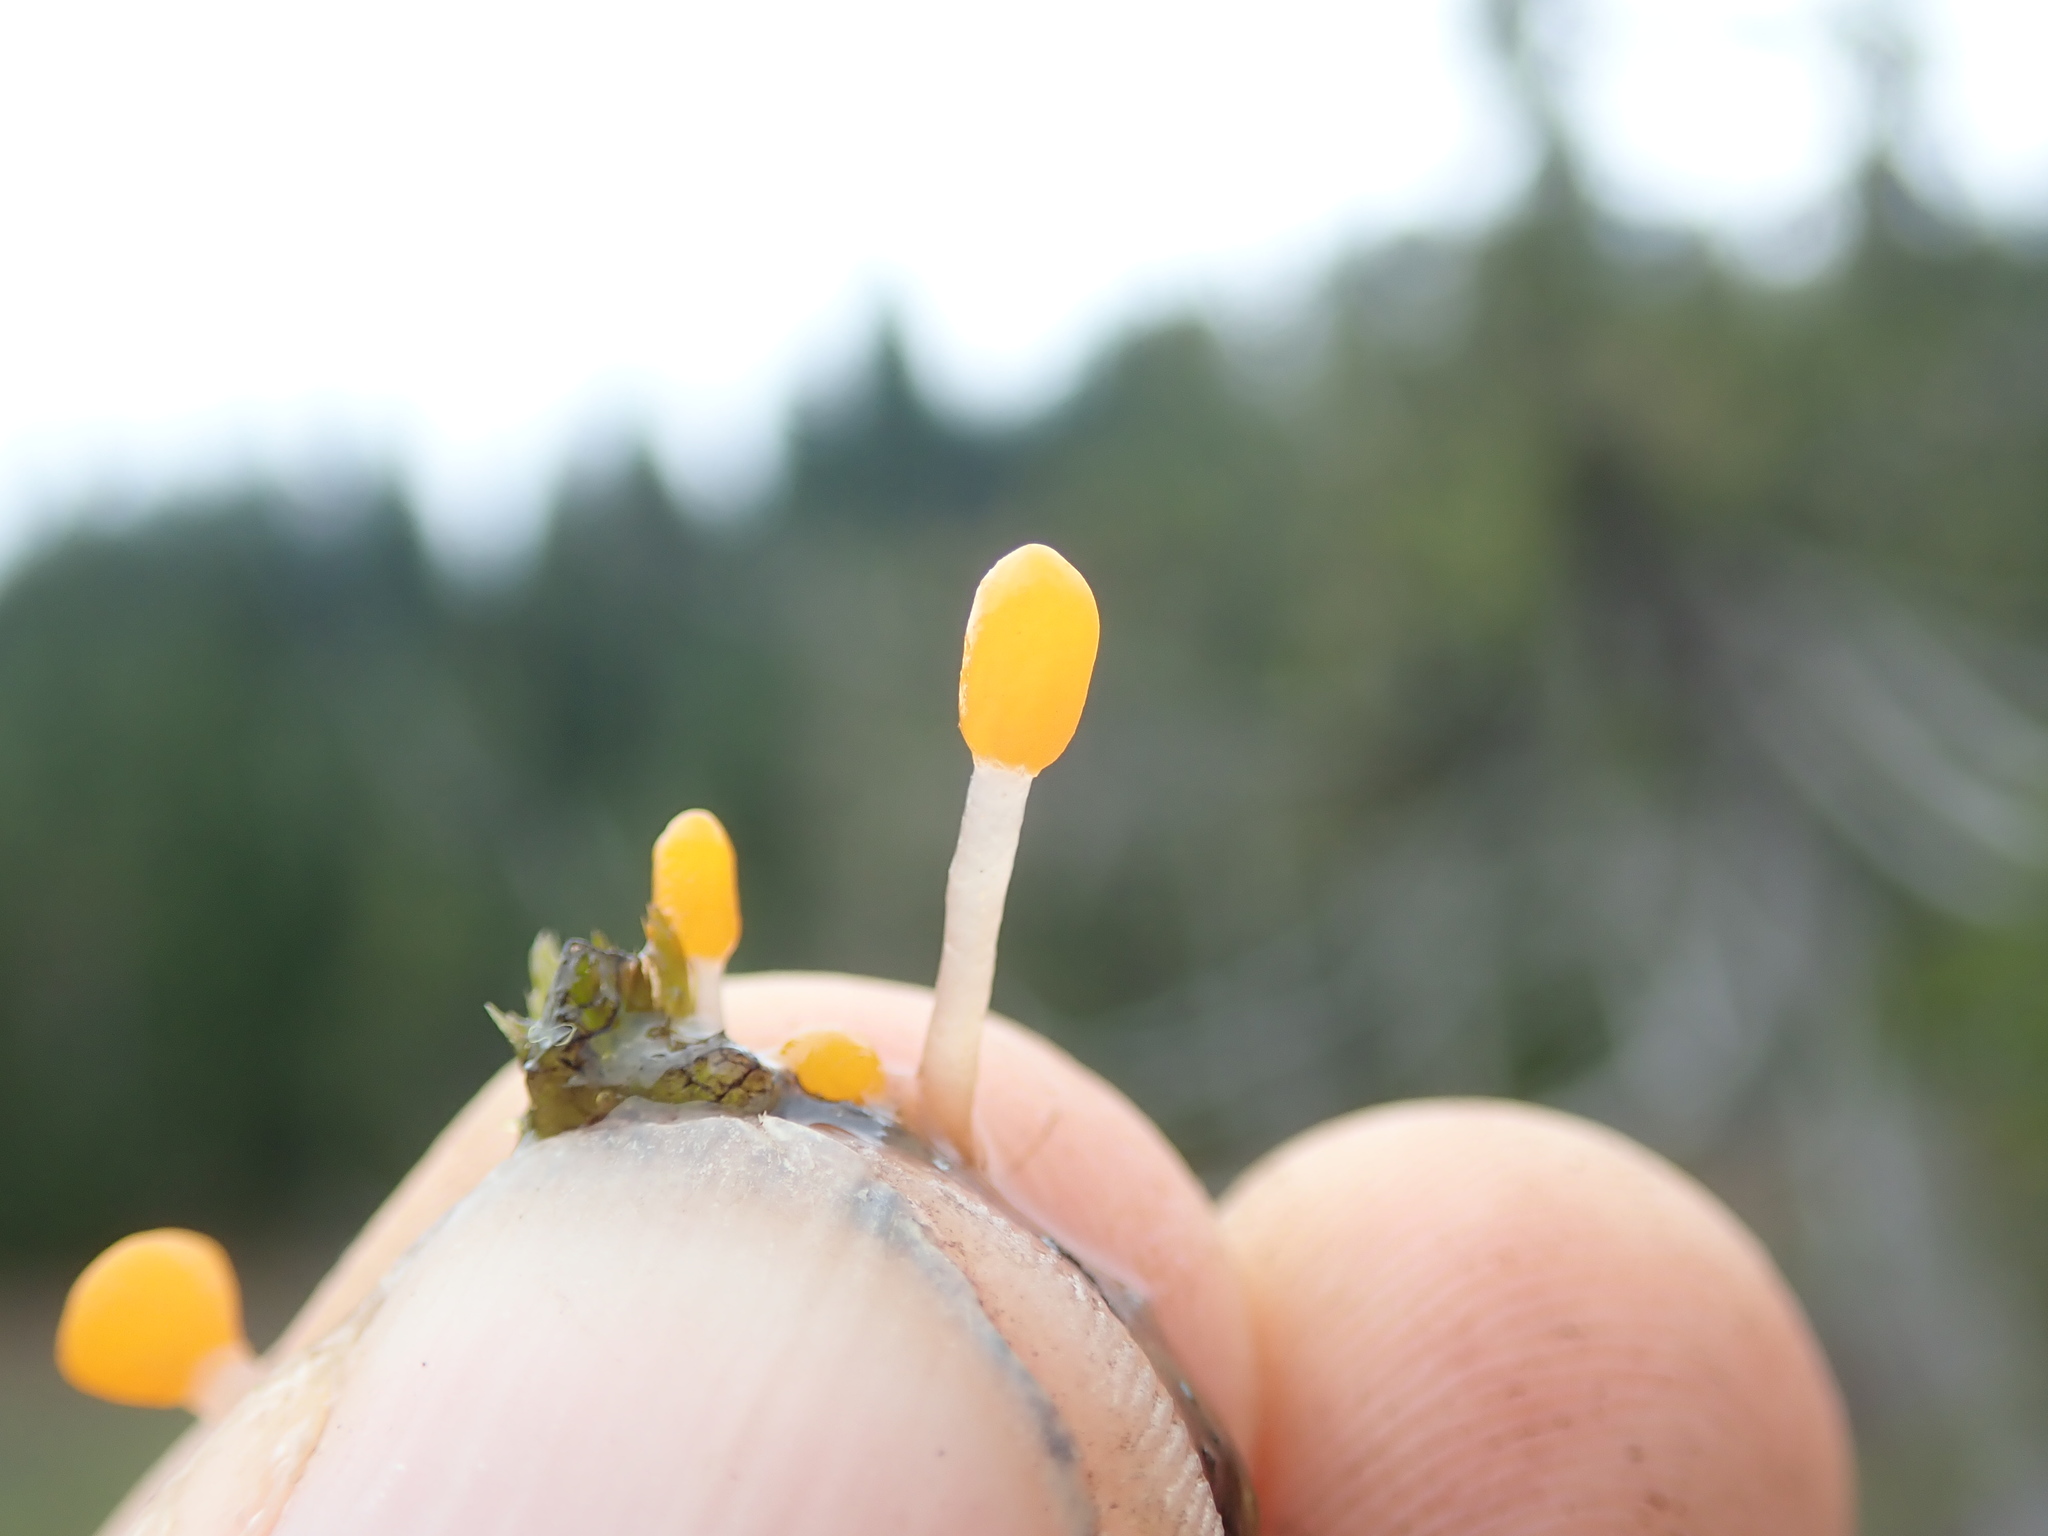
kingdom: Fungi
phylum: Ascomycota
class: Leotiomycetes
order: Helotiales
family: Sclerotiniaceae
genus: Mitrula
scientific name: Mitrula elegans
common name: Swamp beacon
